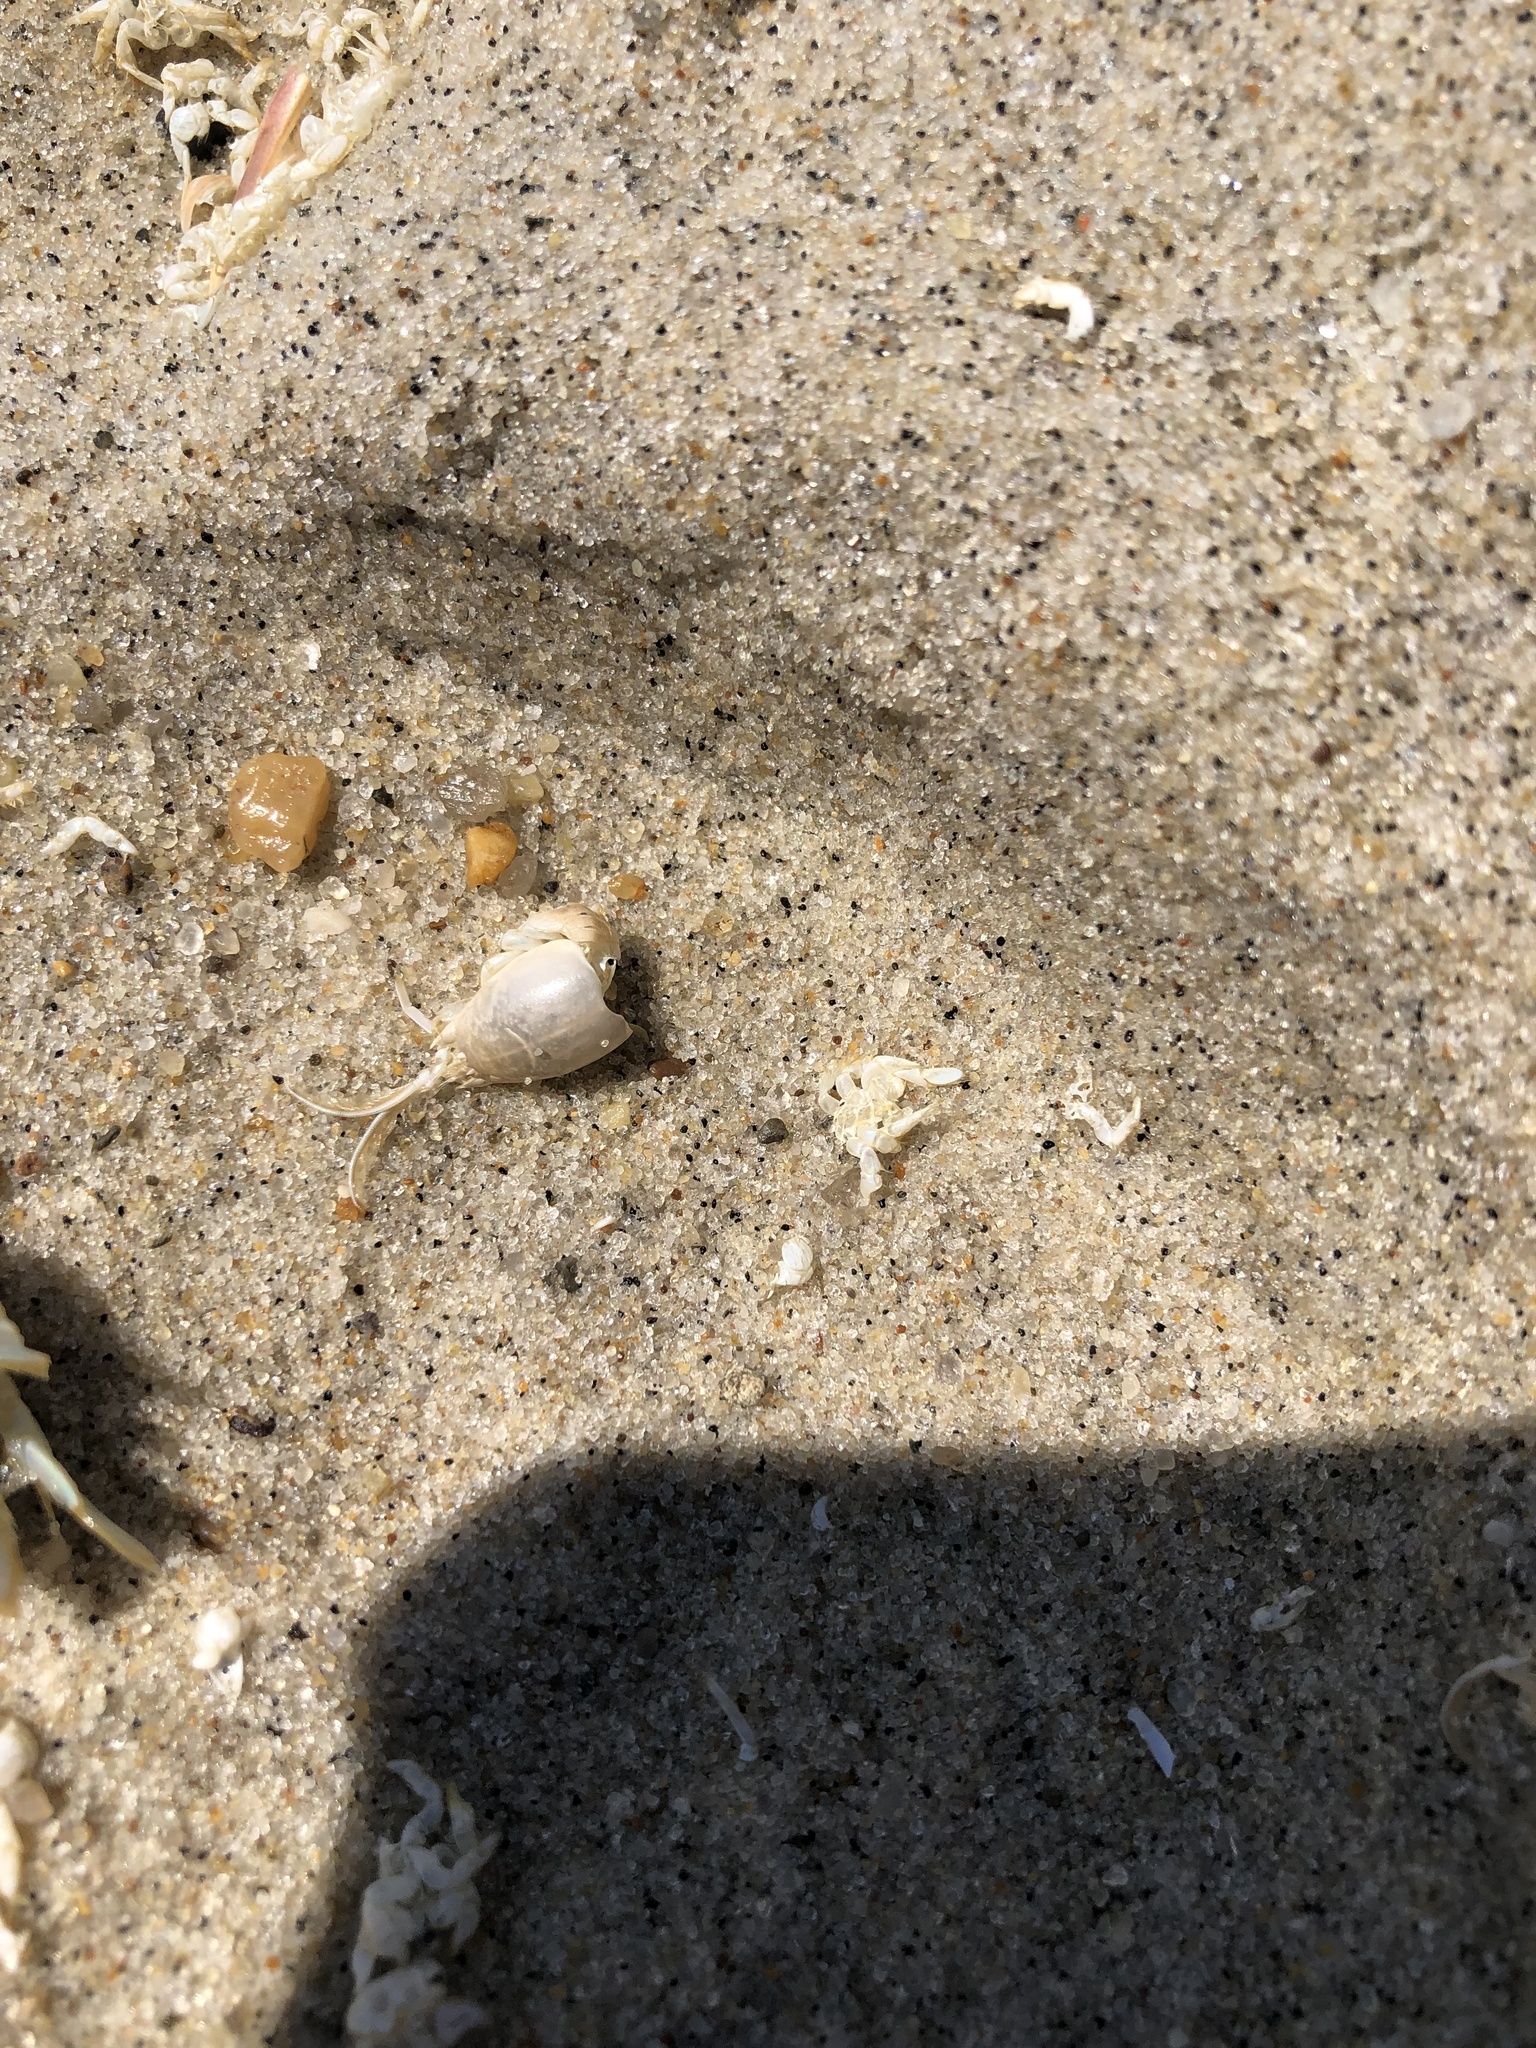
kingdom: Animalia
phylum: Arthropoda
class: Malacostraca
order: Decapoda
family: Hippidae
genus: Emerita
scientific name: Emerita talpoida
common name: Atlantic sand crab
